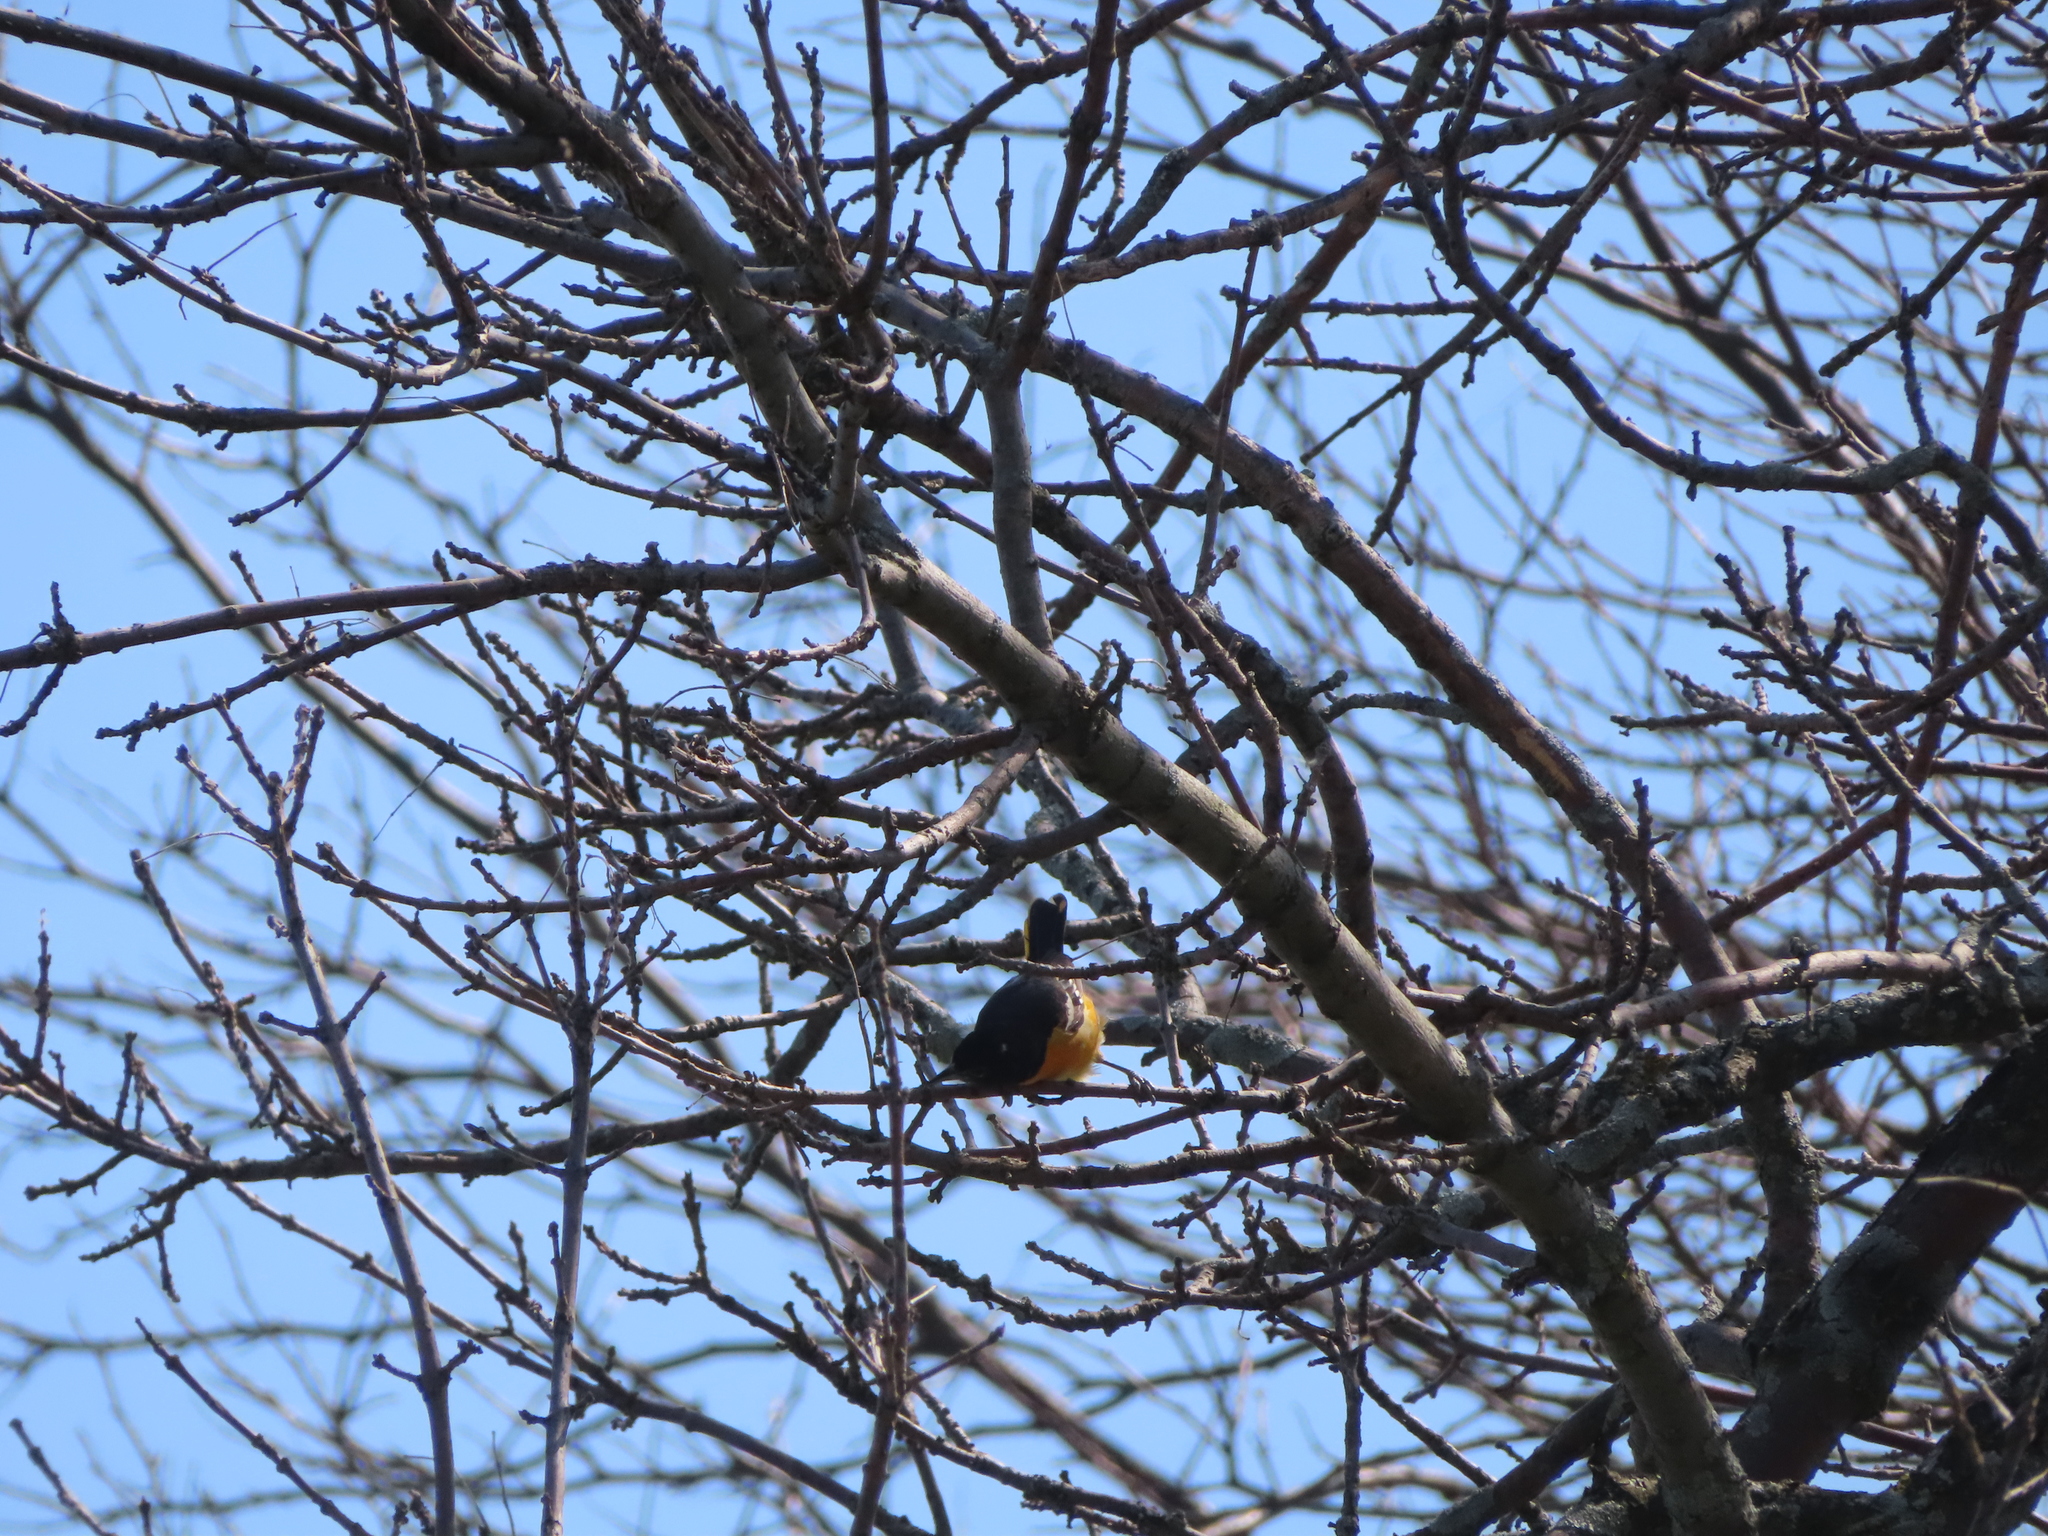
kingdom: Animalia
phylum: Chordata
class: Aves
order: Passeriformes
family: Icteridae
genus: Icterus
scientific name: Icterus galbula
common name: Baltimore oriole
